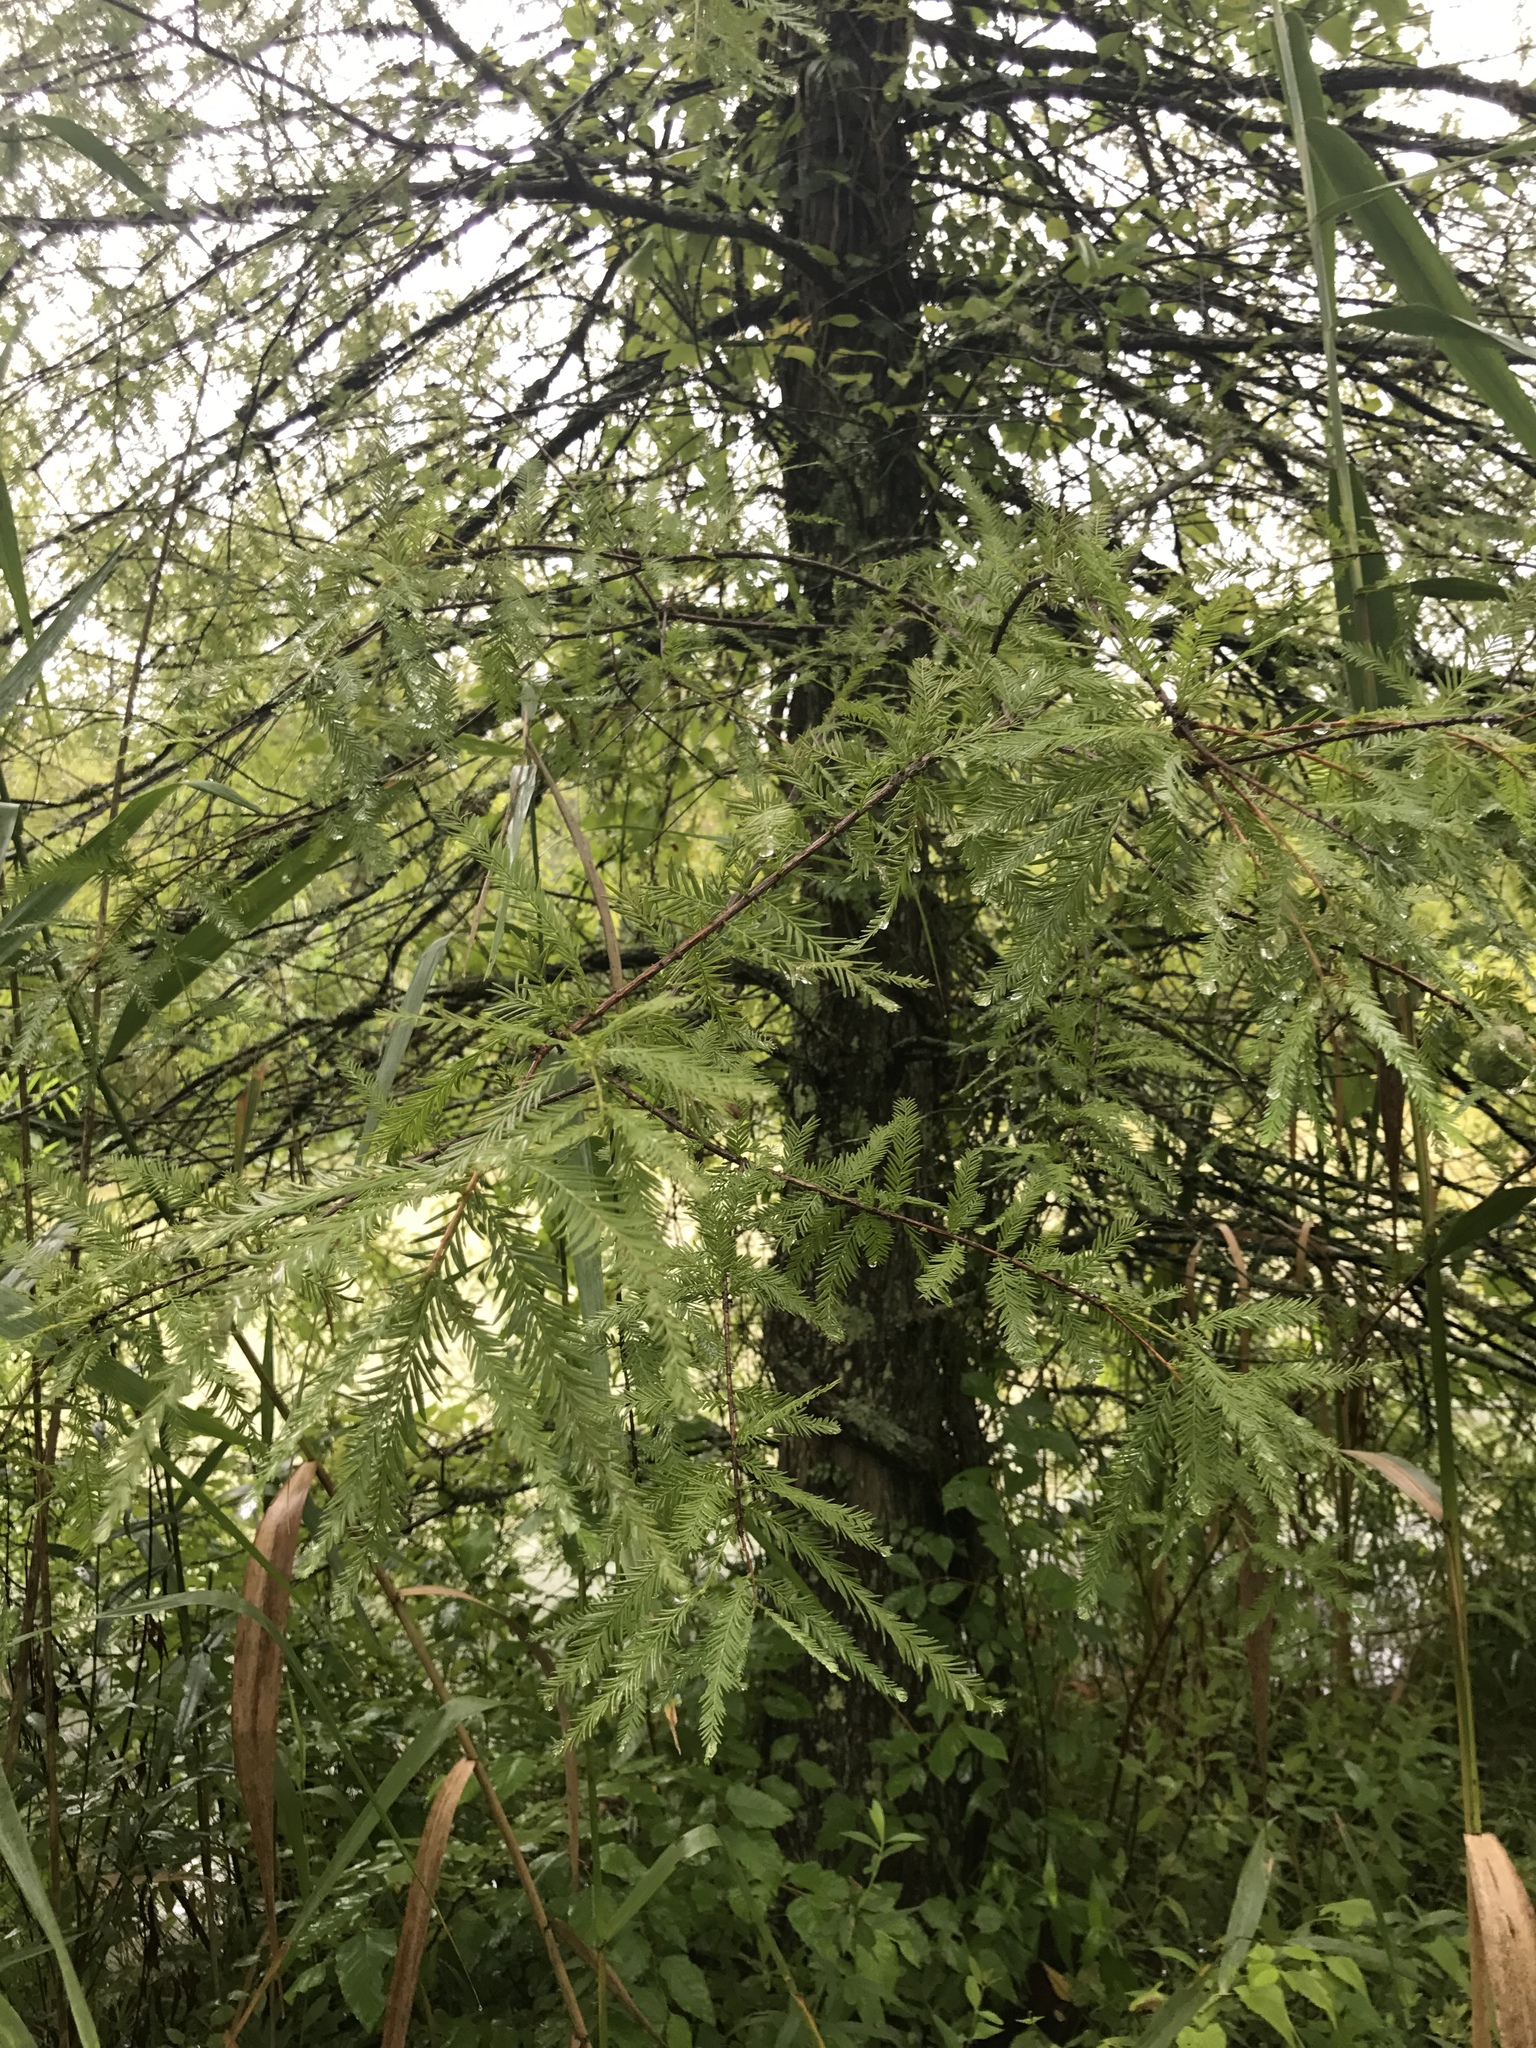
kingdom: Plantae
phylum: Tracheophyta
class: Pinopsida
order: Pinales
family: Cupressaceae
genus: Taxodium
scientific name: Taxodium distichum
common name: Bald cypress
